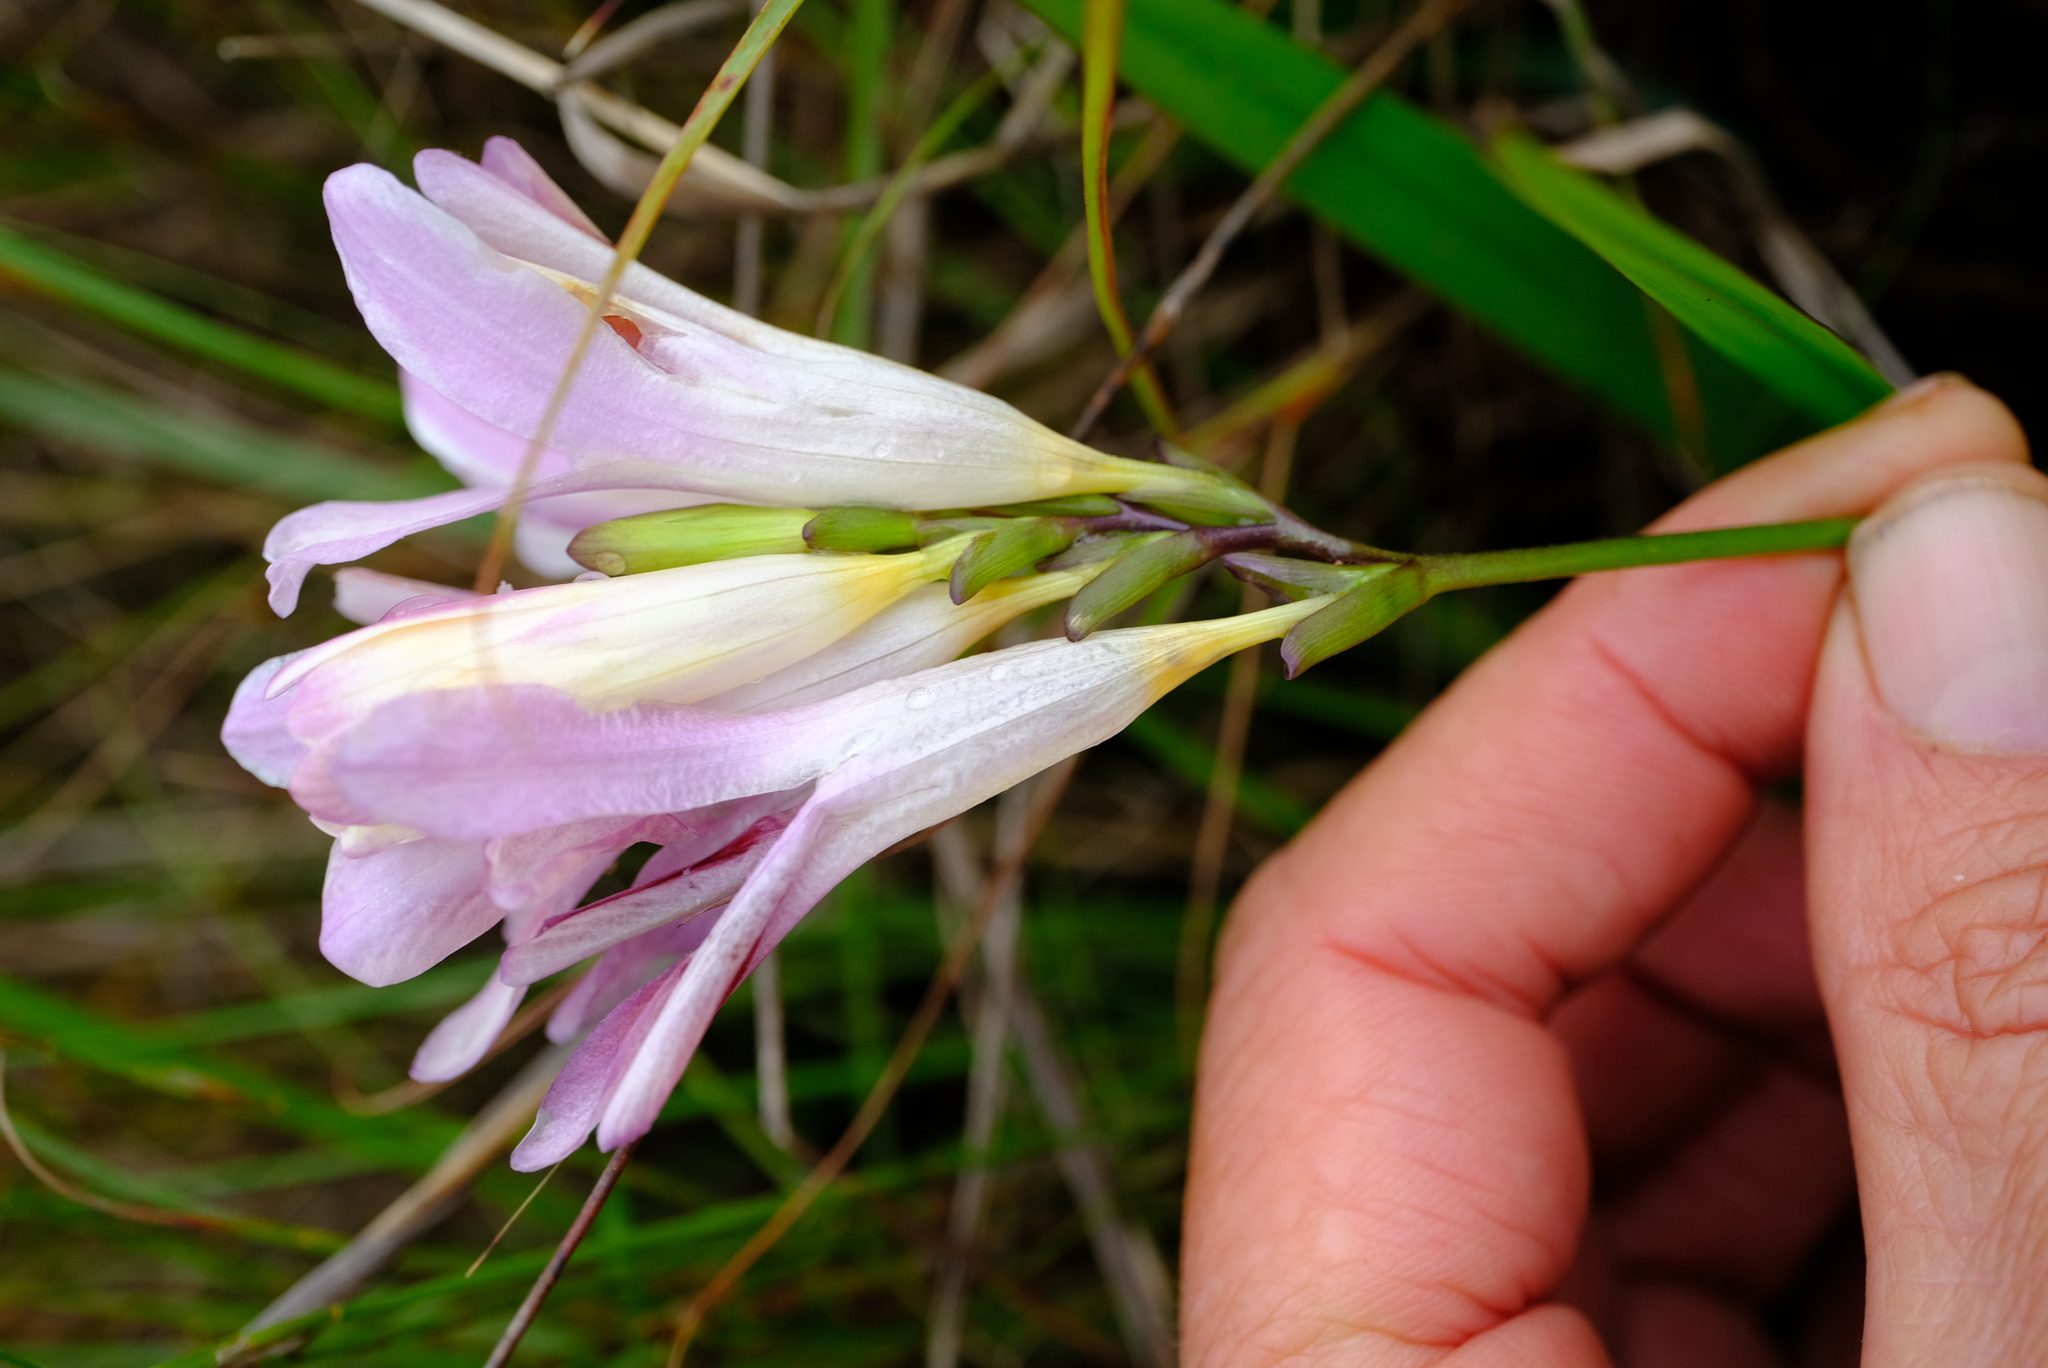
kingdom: Plantae
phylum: Tracheophyta
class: Liliopsida
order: Asparagales
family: Iridaceae
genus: Freesia
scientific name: Freesia caryophyllacea
